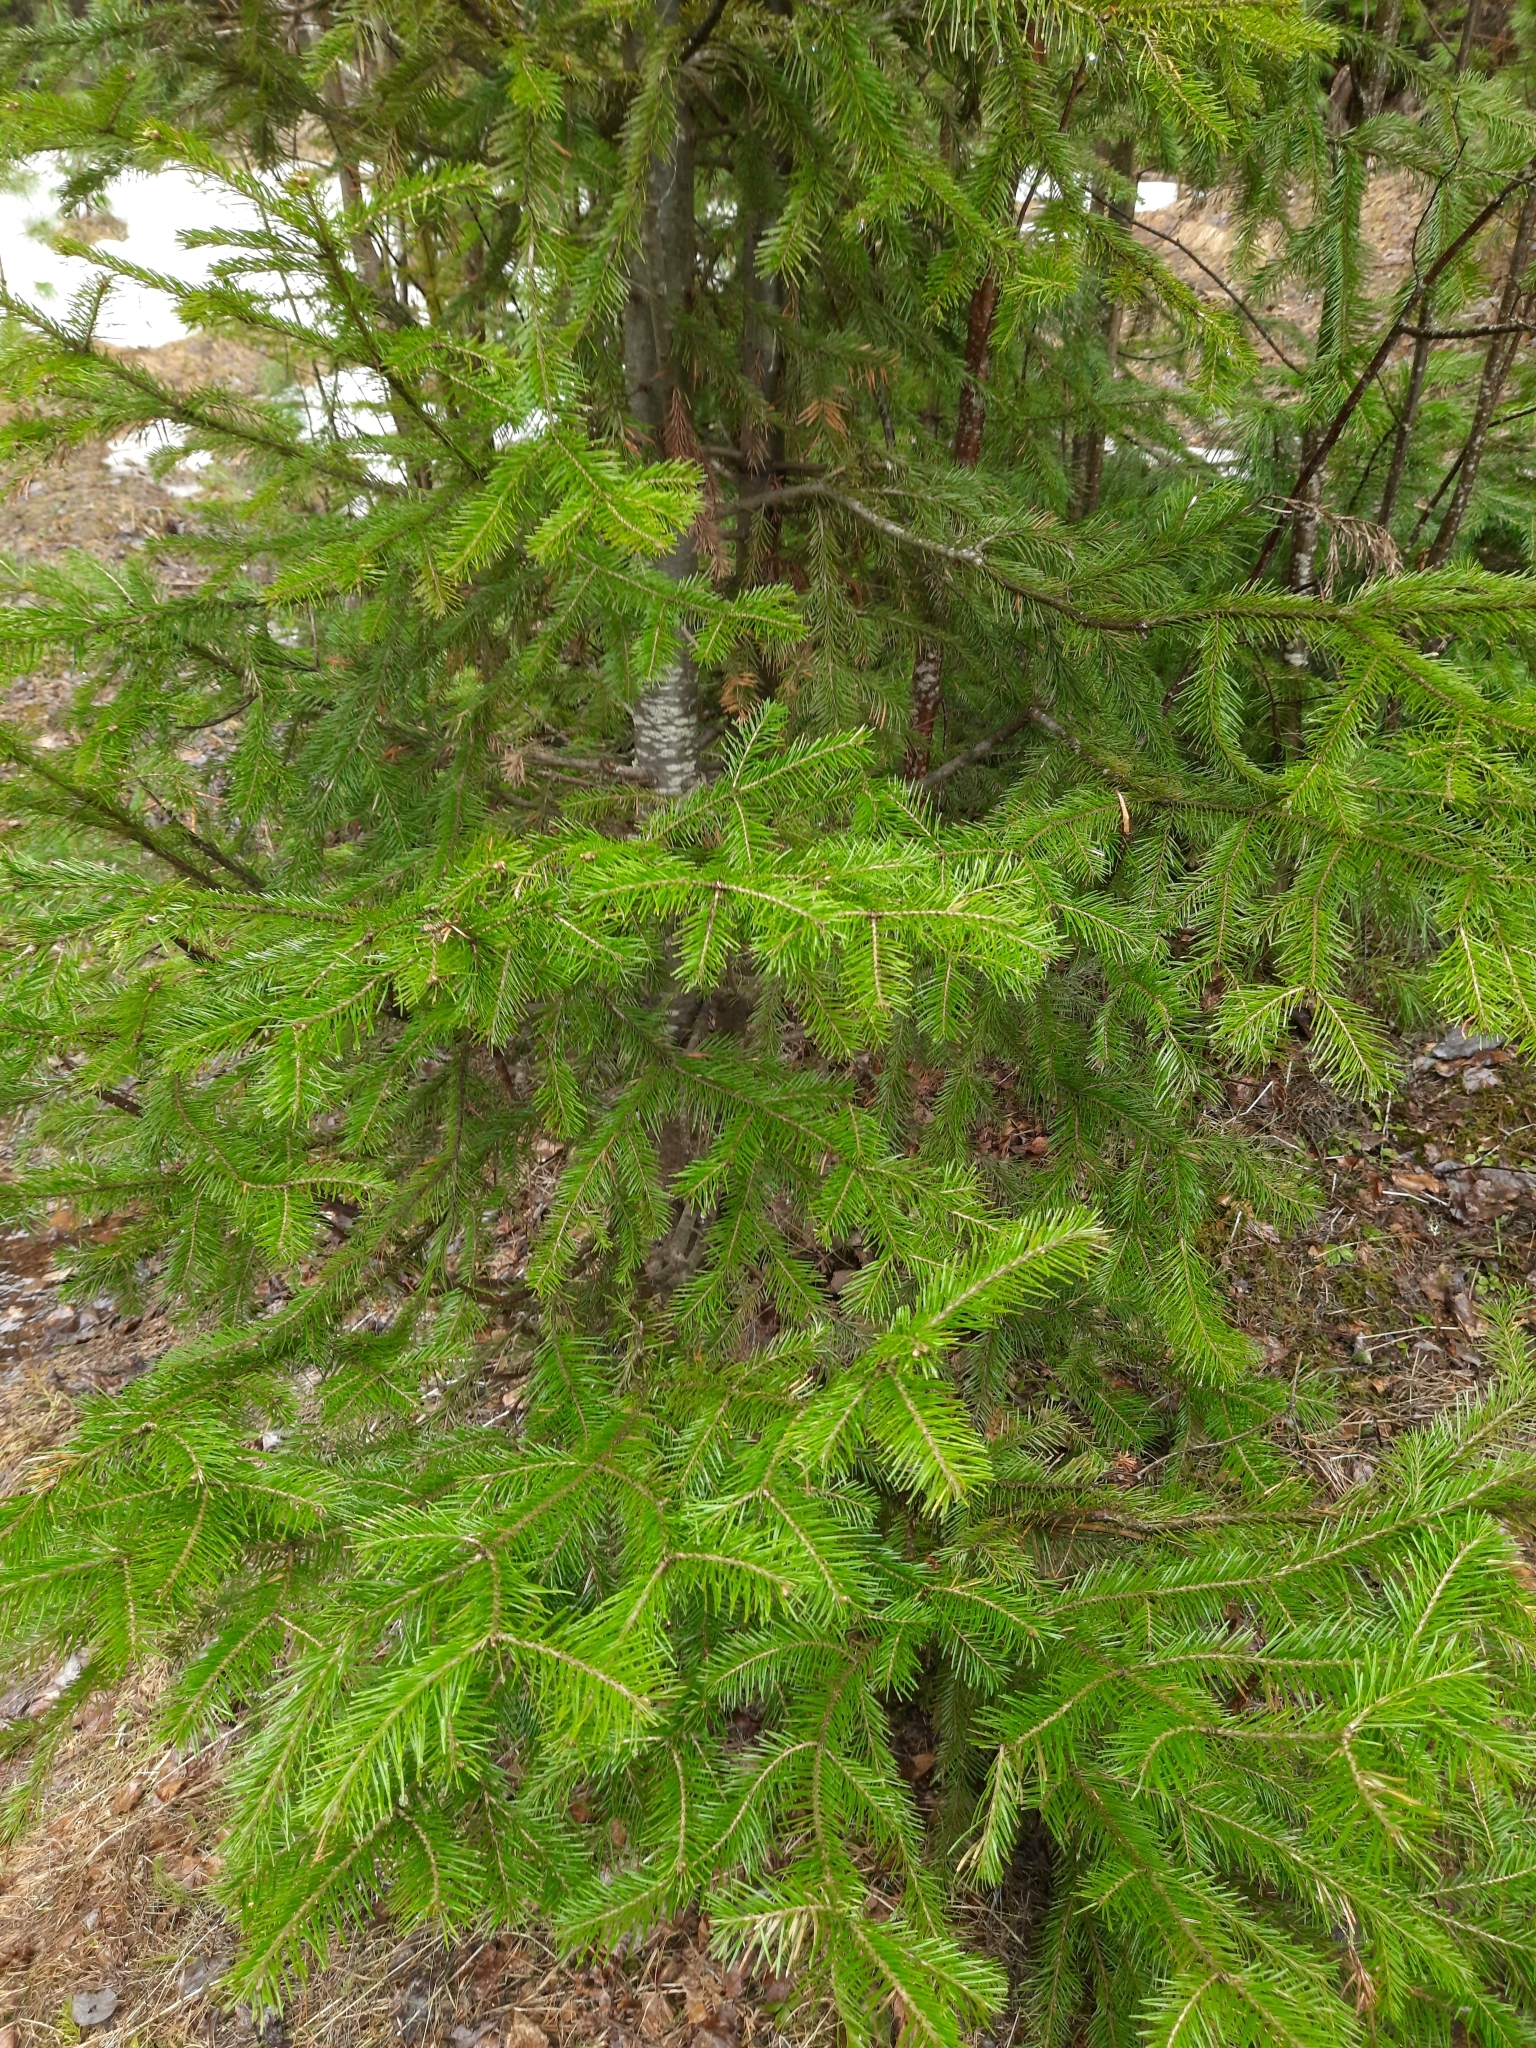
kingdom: Plantae
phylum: Tracheophyta
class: Pinopsida
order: Pinales
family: Pinaceae
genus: Abies
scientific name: Abies sibirica
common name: Siberian fir
